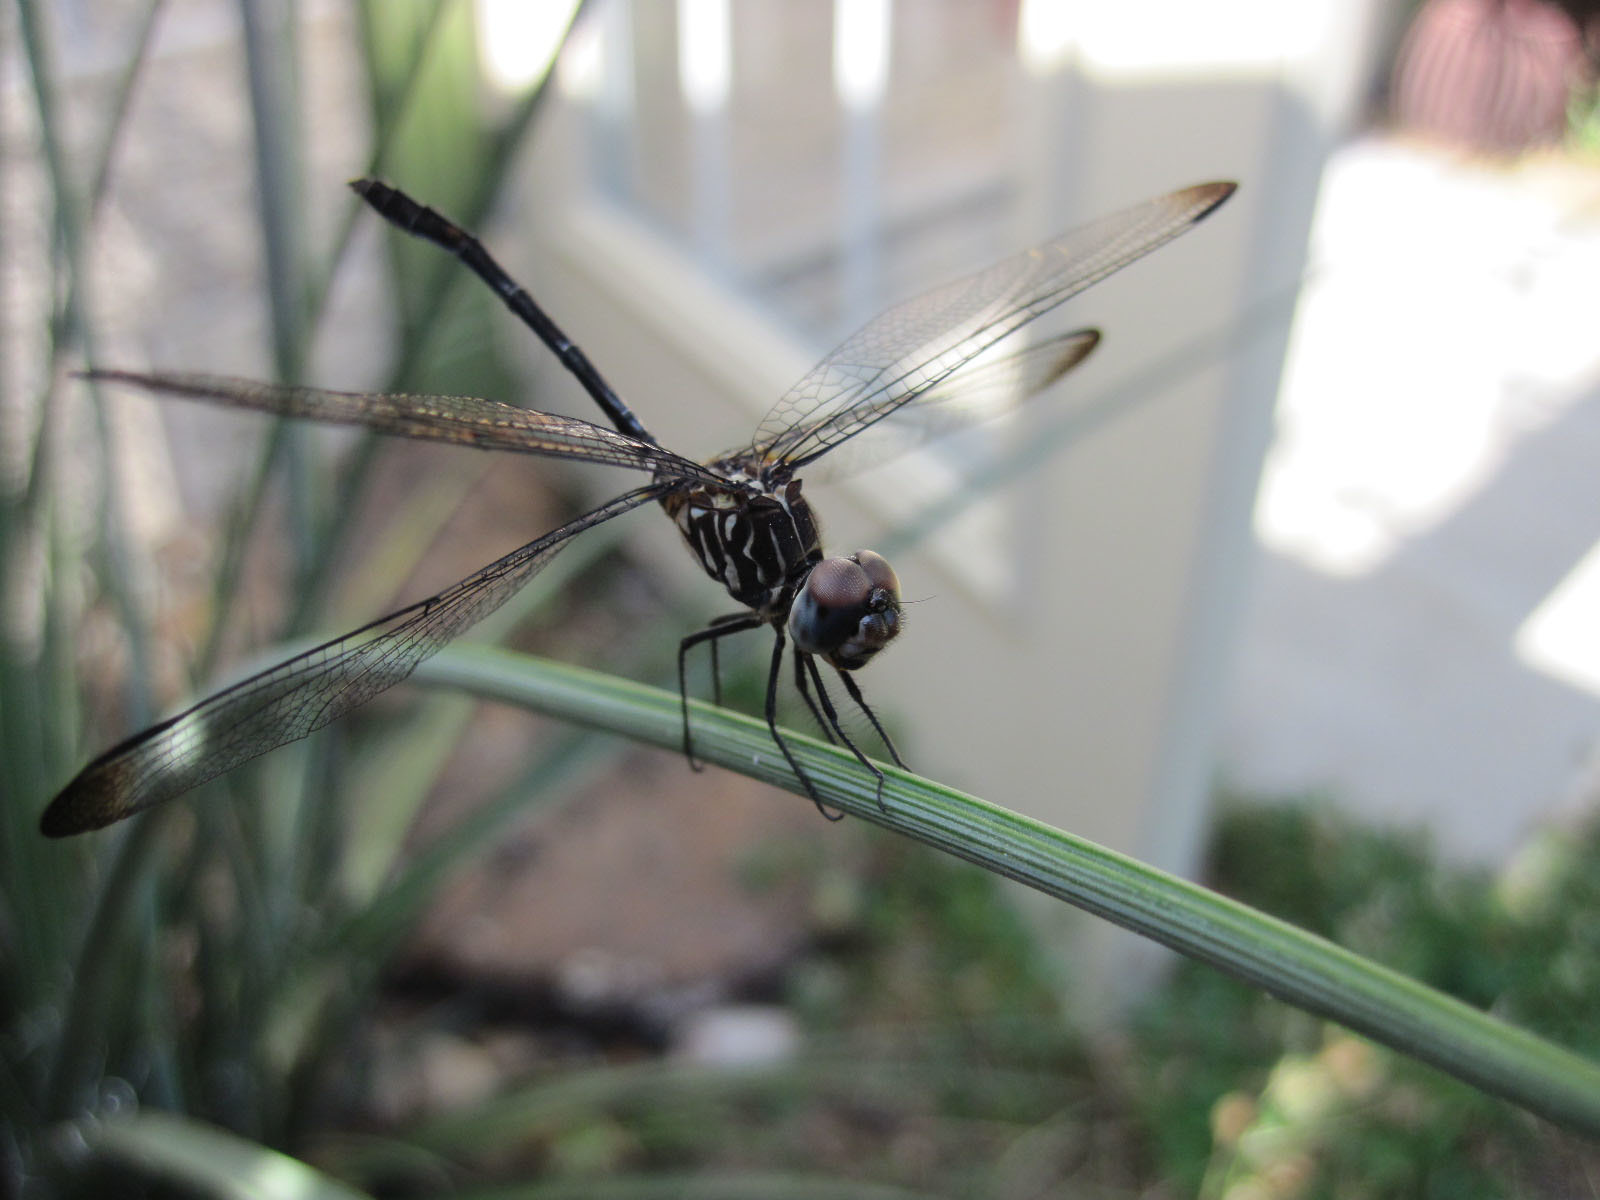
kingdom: Animalia
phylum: Arthropoda
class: Insecta
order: Odonata
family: Libellulidae
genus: Dythemis
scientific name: Dythemis velox
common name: Swift setwing
